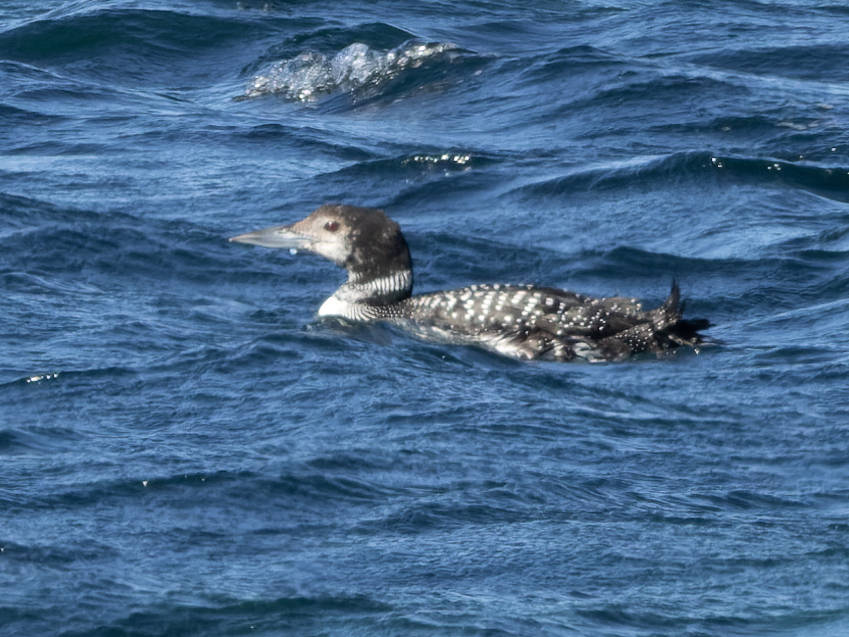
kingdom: Animalia
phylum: Chordata
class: Aves
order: Gaviiformes
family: Gaviidae
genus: Gavia
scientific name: Gavia immer
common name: Common loon
